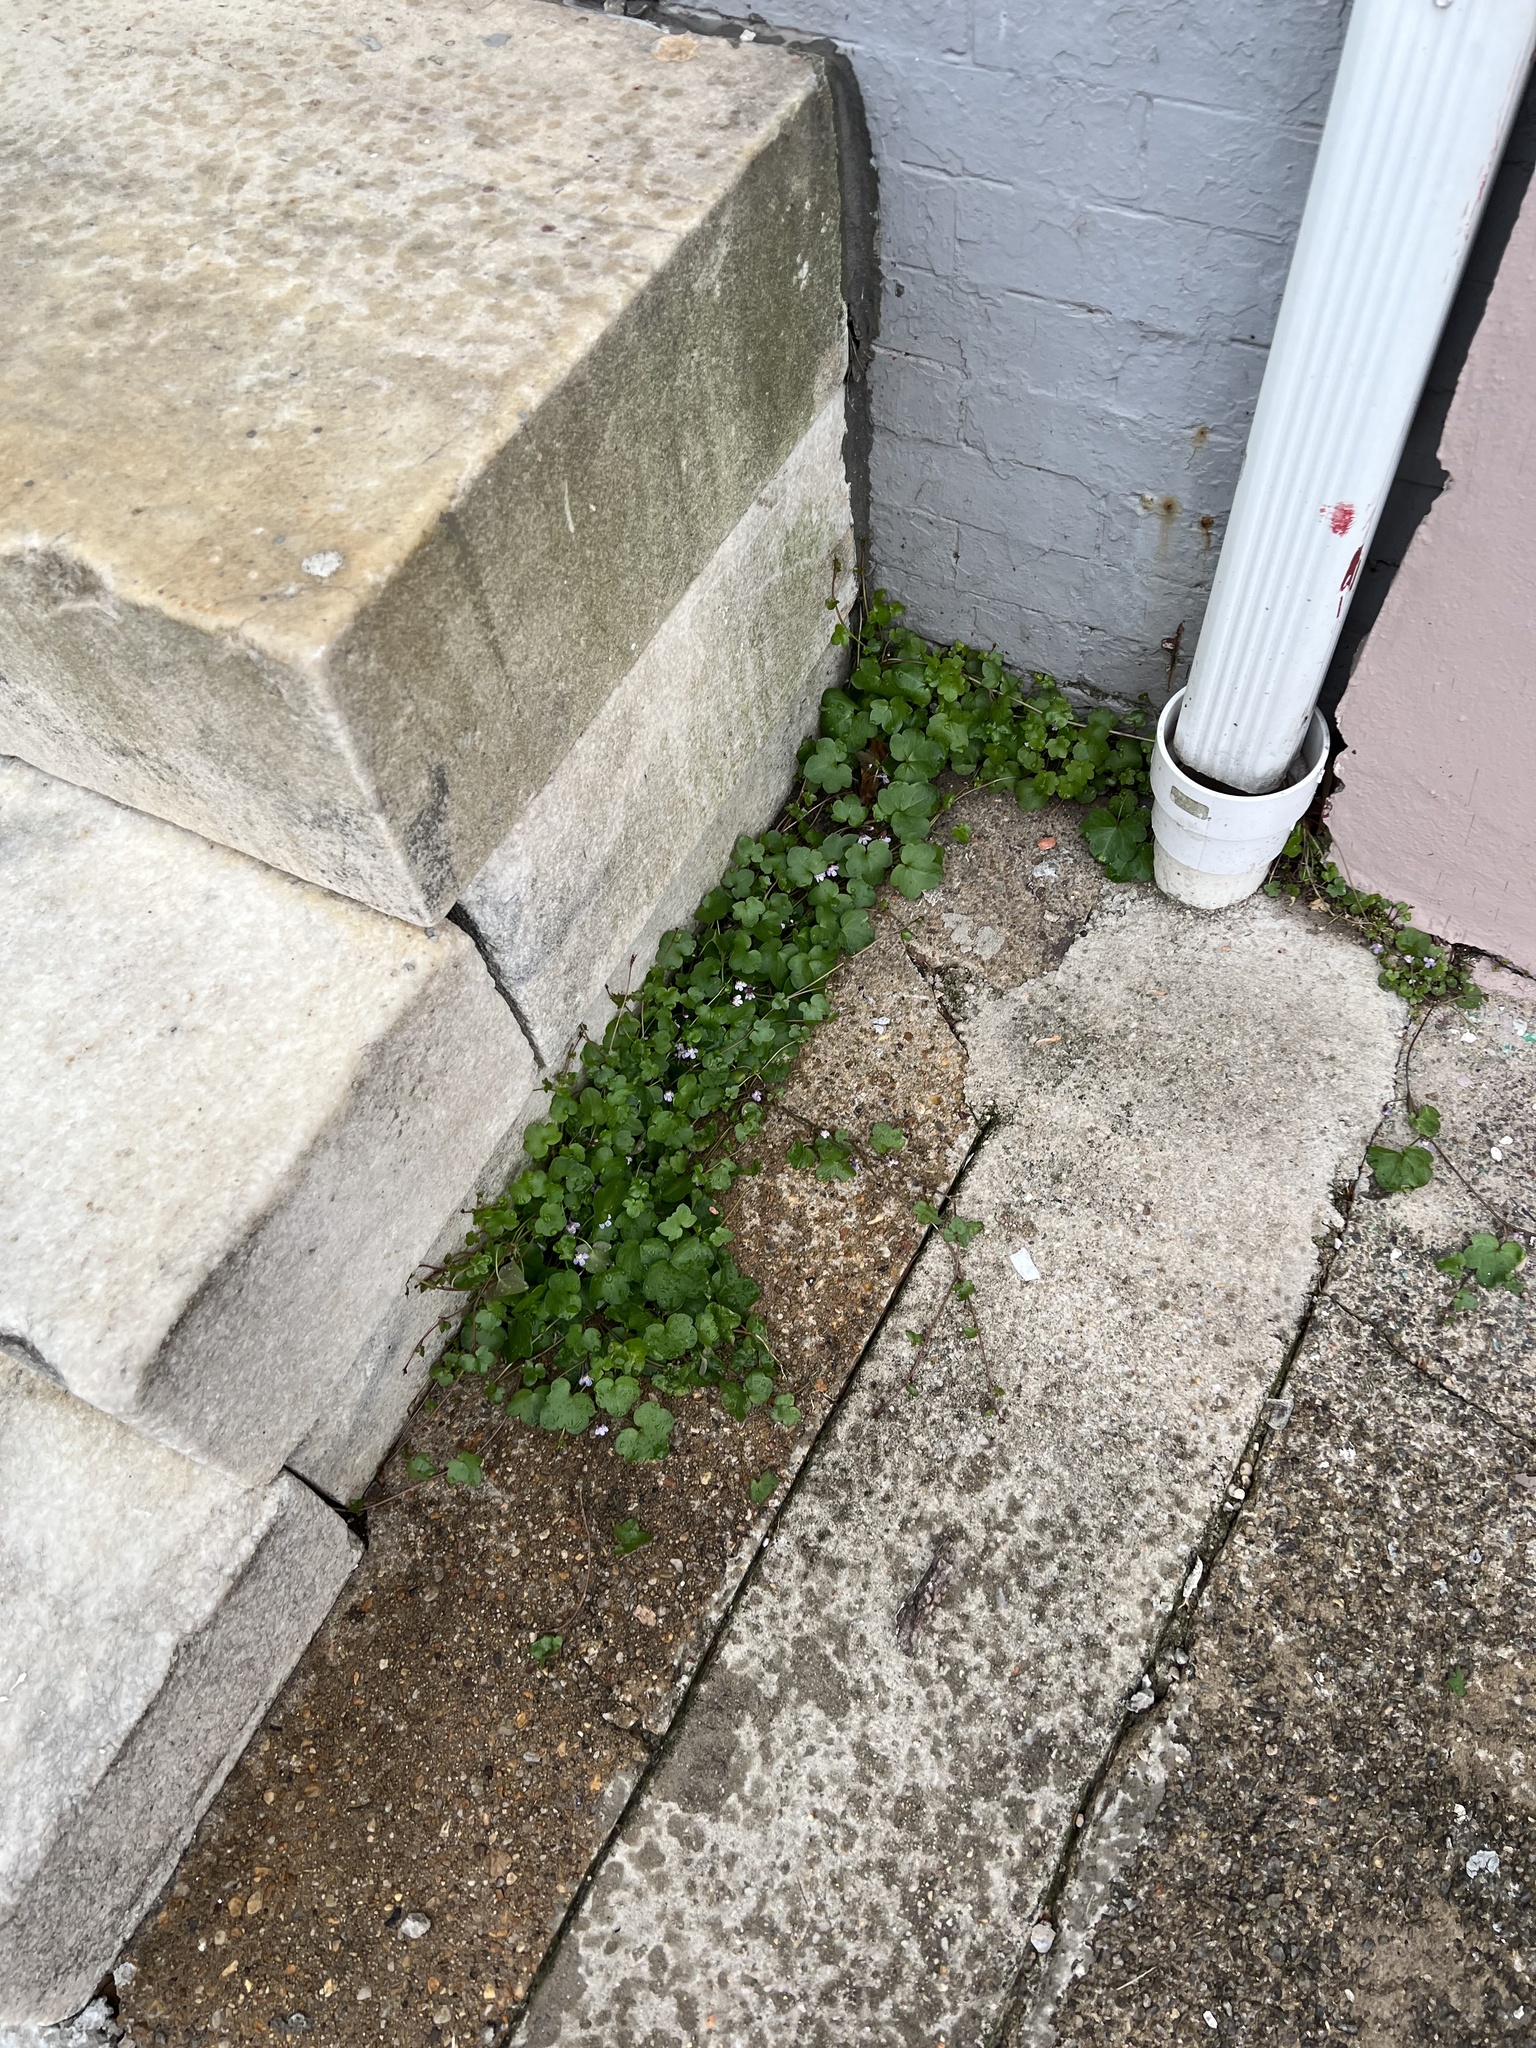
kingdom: Plantae
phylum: Tracheophyta
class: Magnoliopsida
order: Lamiales
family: Plantaginaceae
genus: Cymbalaria
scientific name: Cymbalaria muralis
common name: Ivy-leaved toadflax
